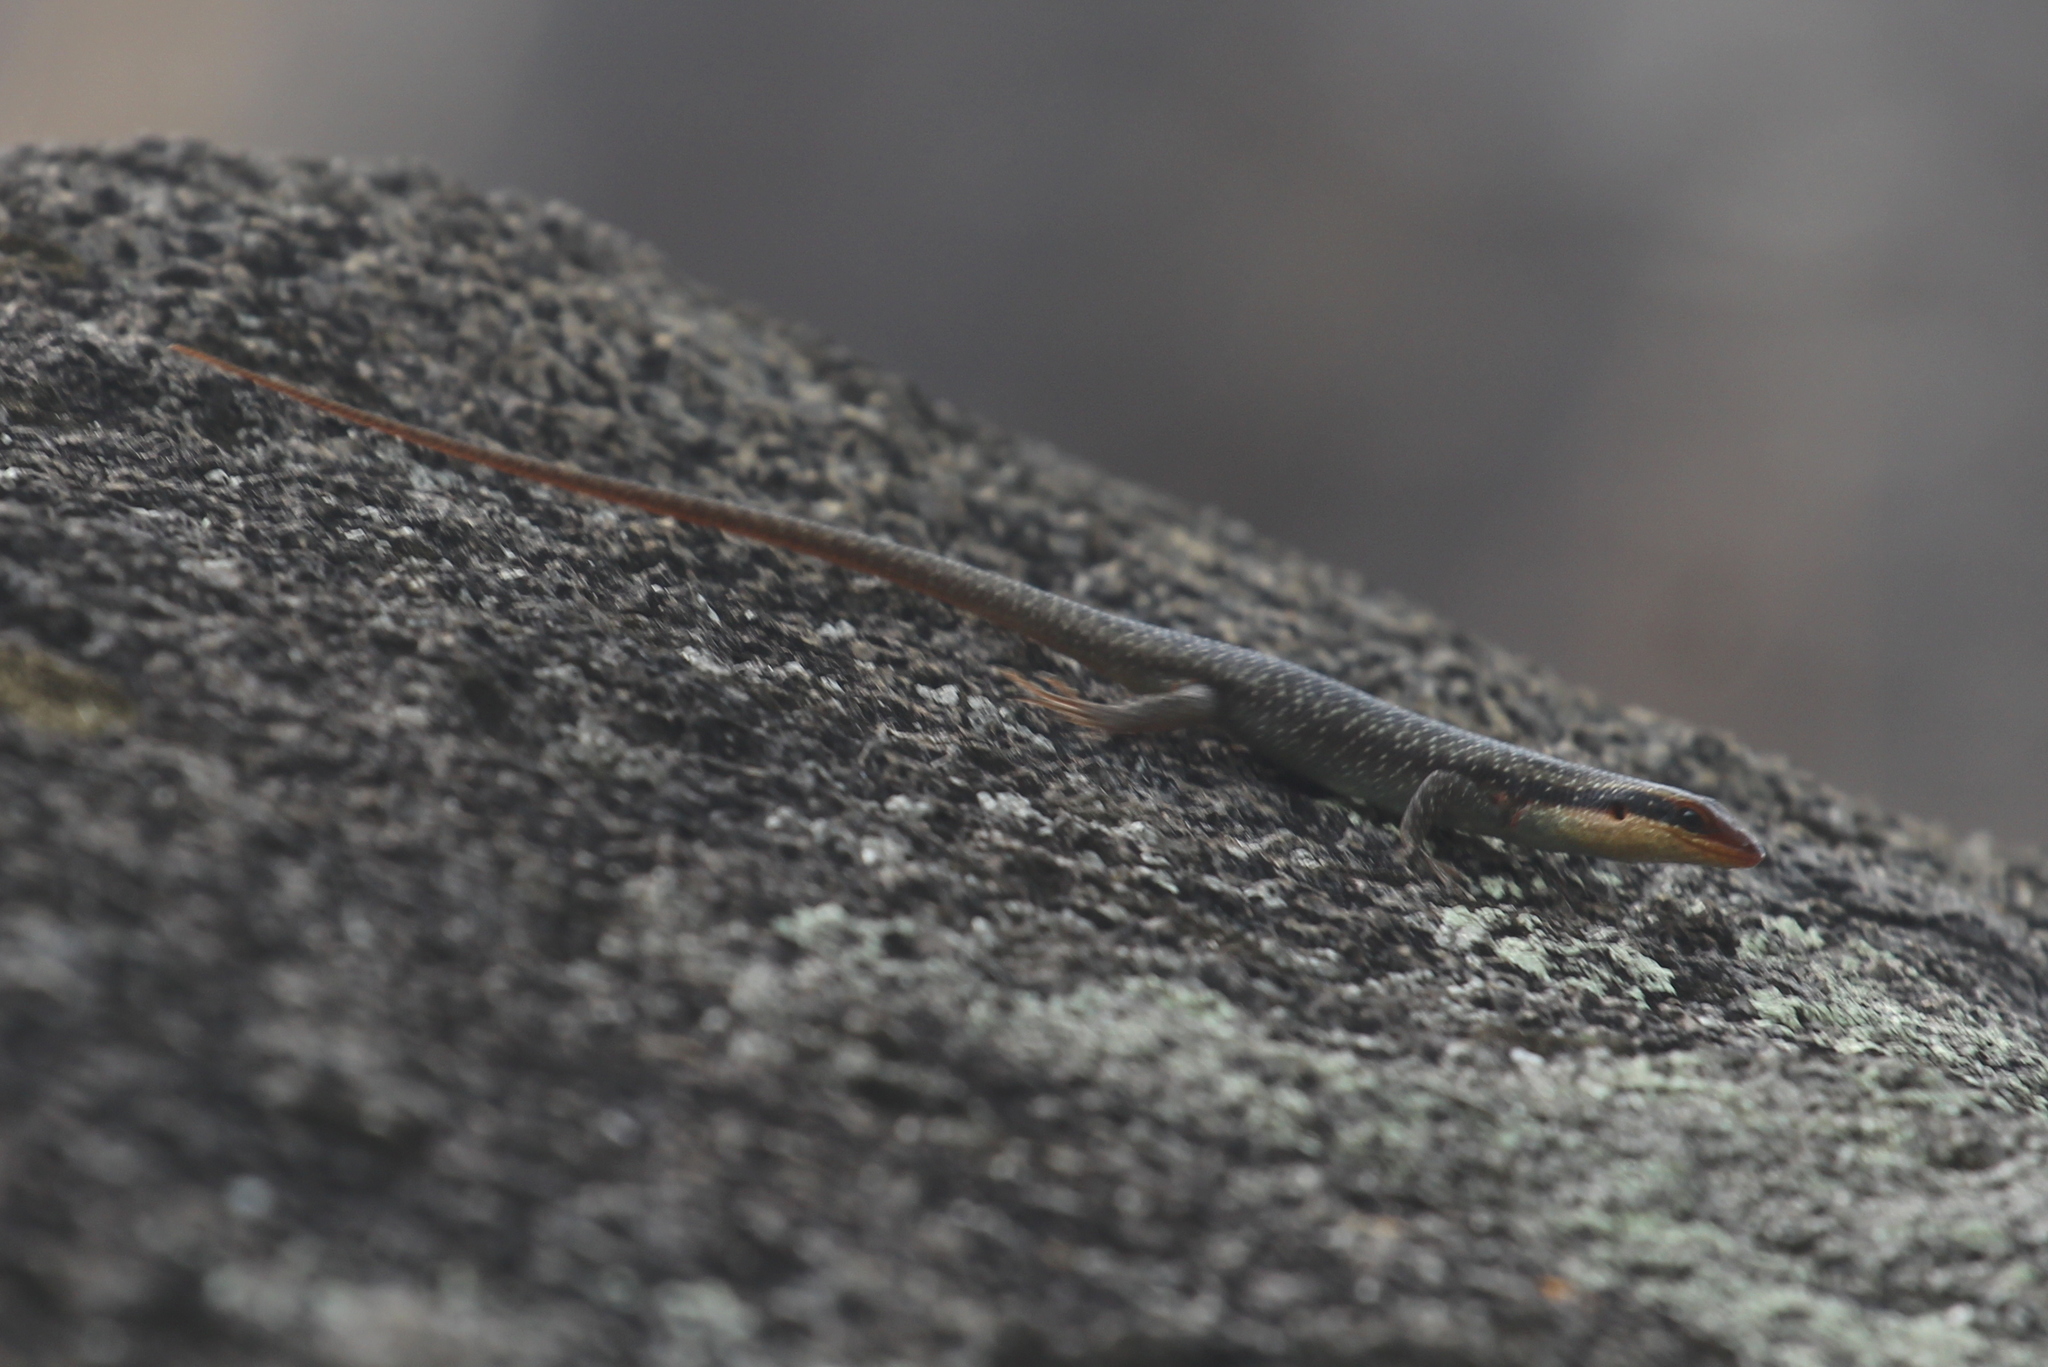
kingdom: Animalia
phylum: Chordata
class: Squamata
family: Scincidae
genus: Trachylepis
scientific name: Trachylepis wahlbergii
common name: Wahlberg’s striped skink
